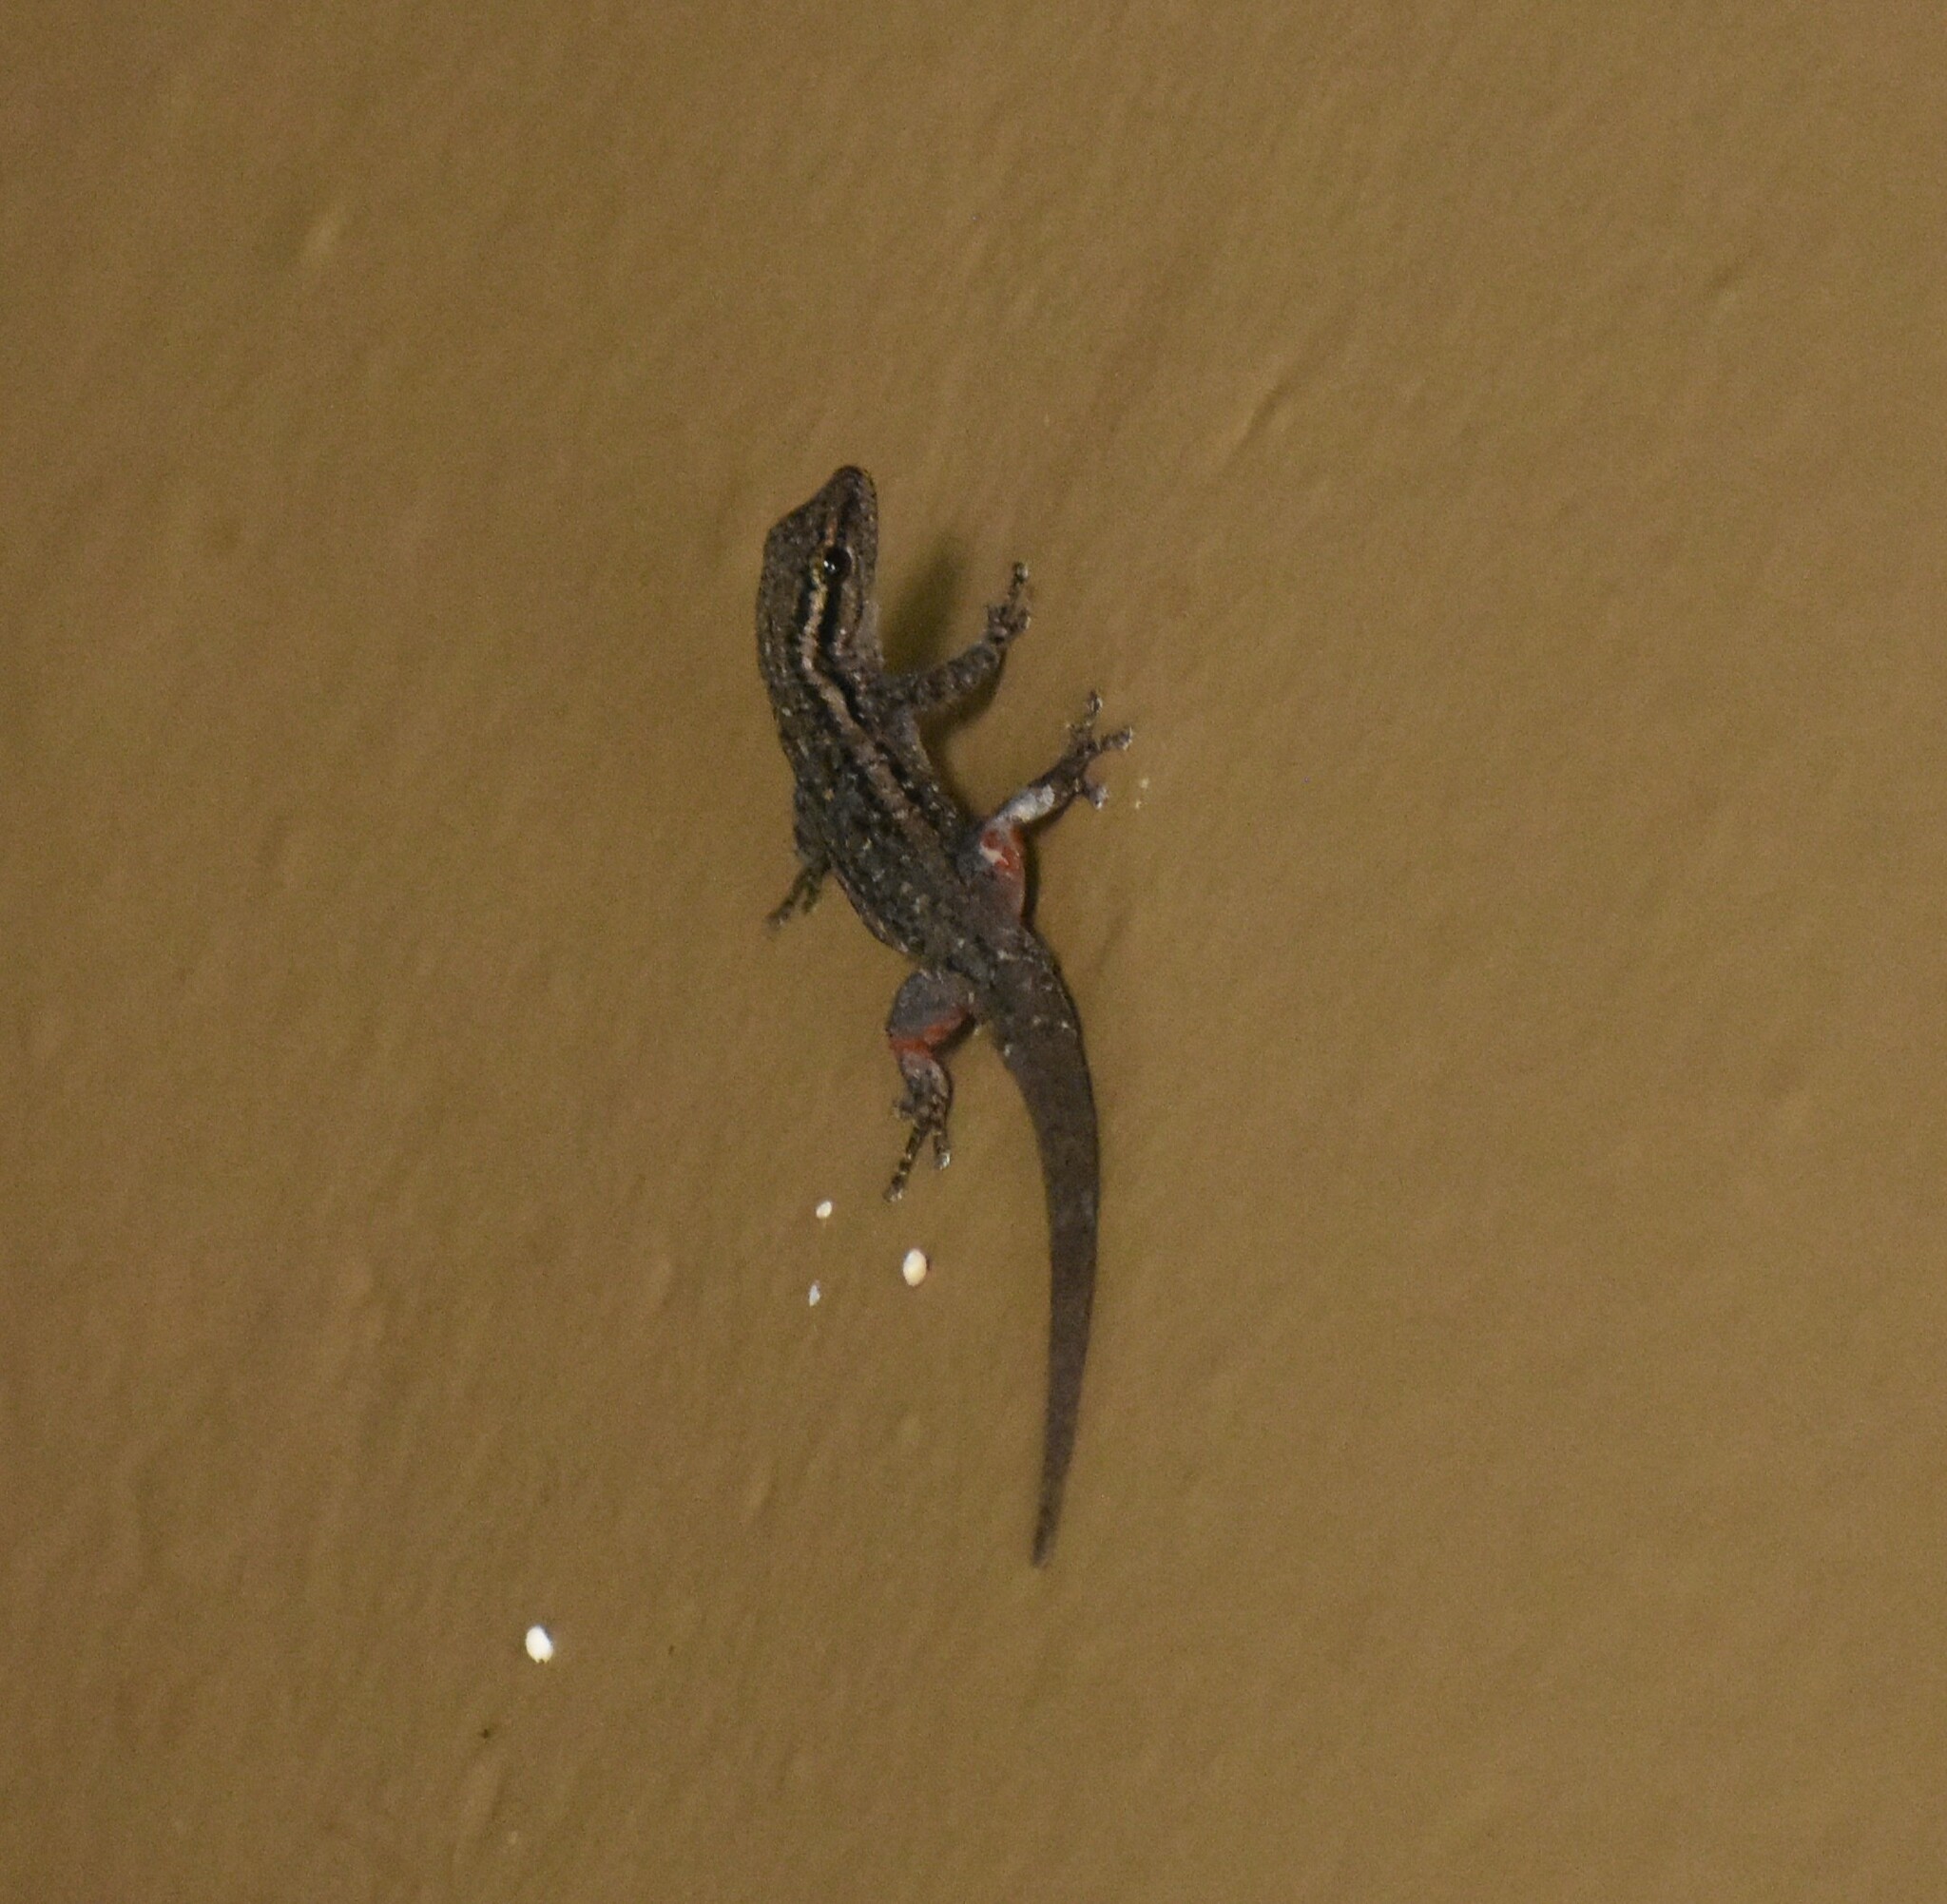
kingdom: Animalia
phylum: Chordata
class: Squamata
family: Gekkonidae
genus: Lygodactylus
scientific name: Lygodactylus capensis
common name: Cape dwarf gecko
